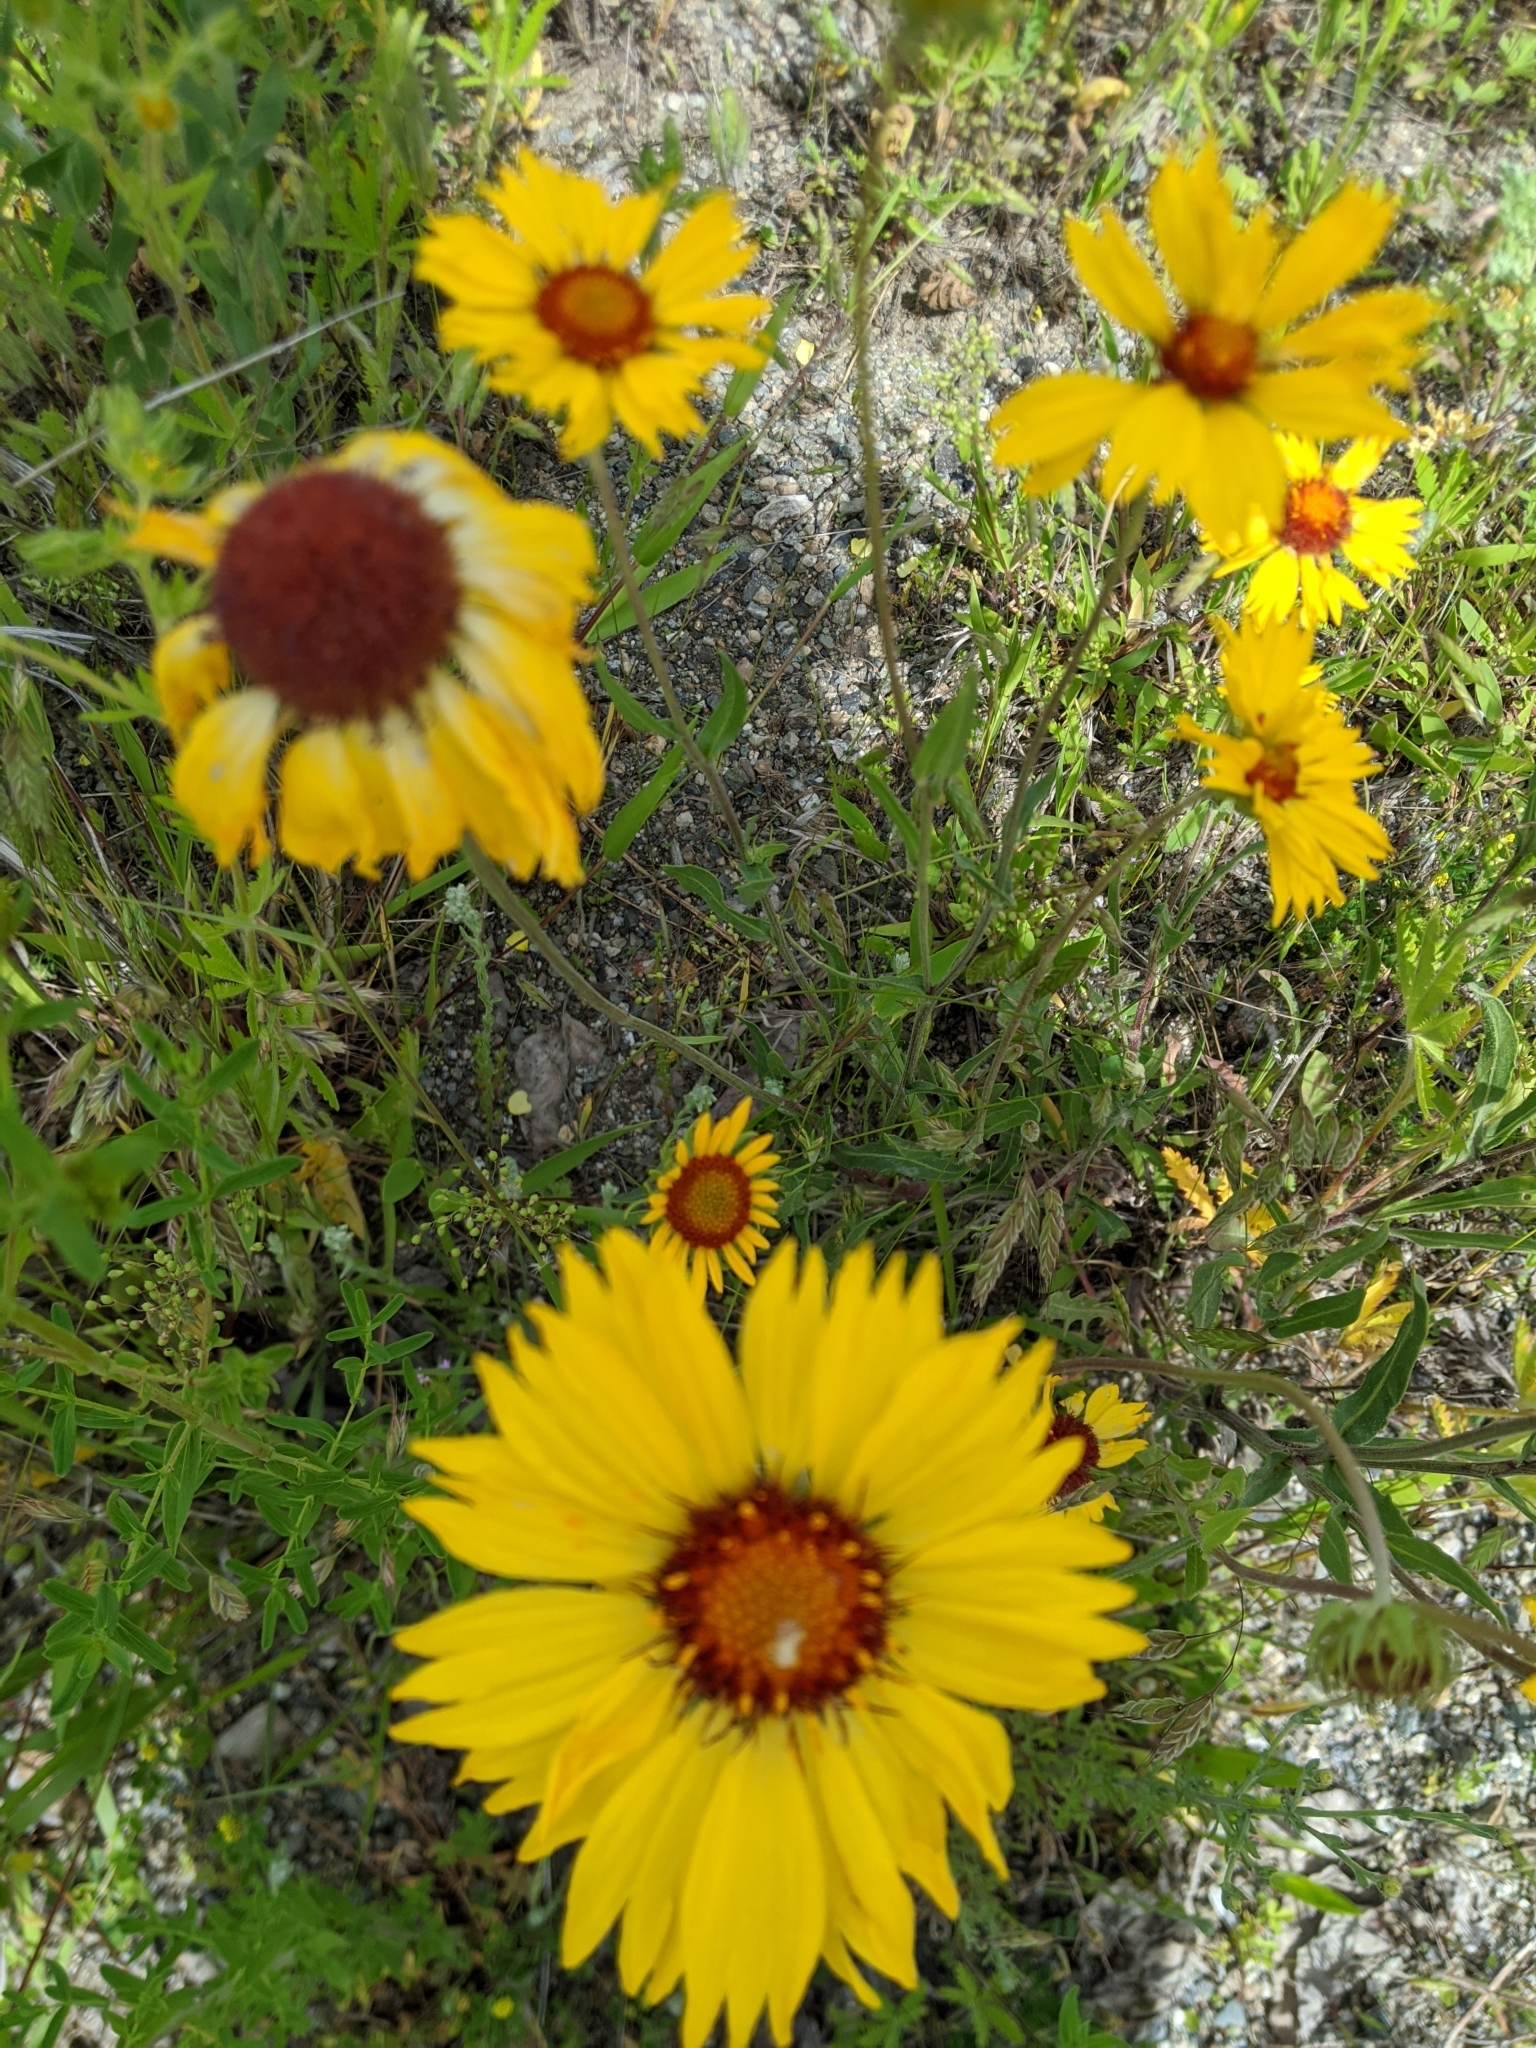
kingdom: Plantae
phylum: Tracheophyta
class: Magnoliopsida
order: Asterales
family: Asteraceae
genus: Gaillardia
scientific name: Gaillardia aristata
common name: Blanket-flower
